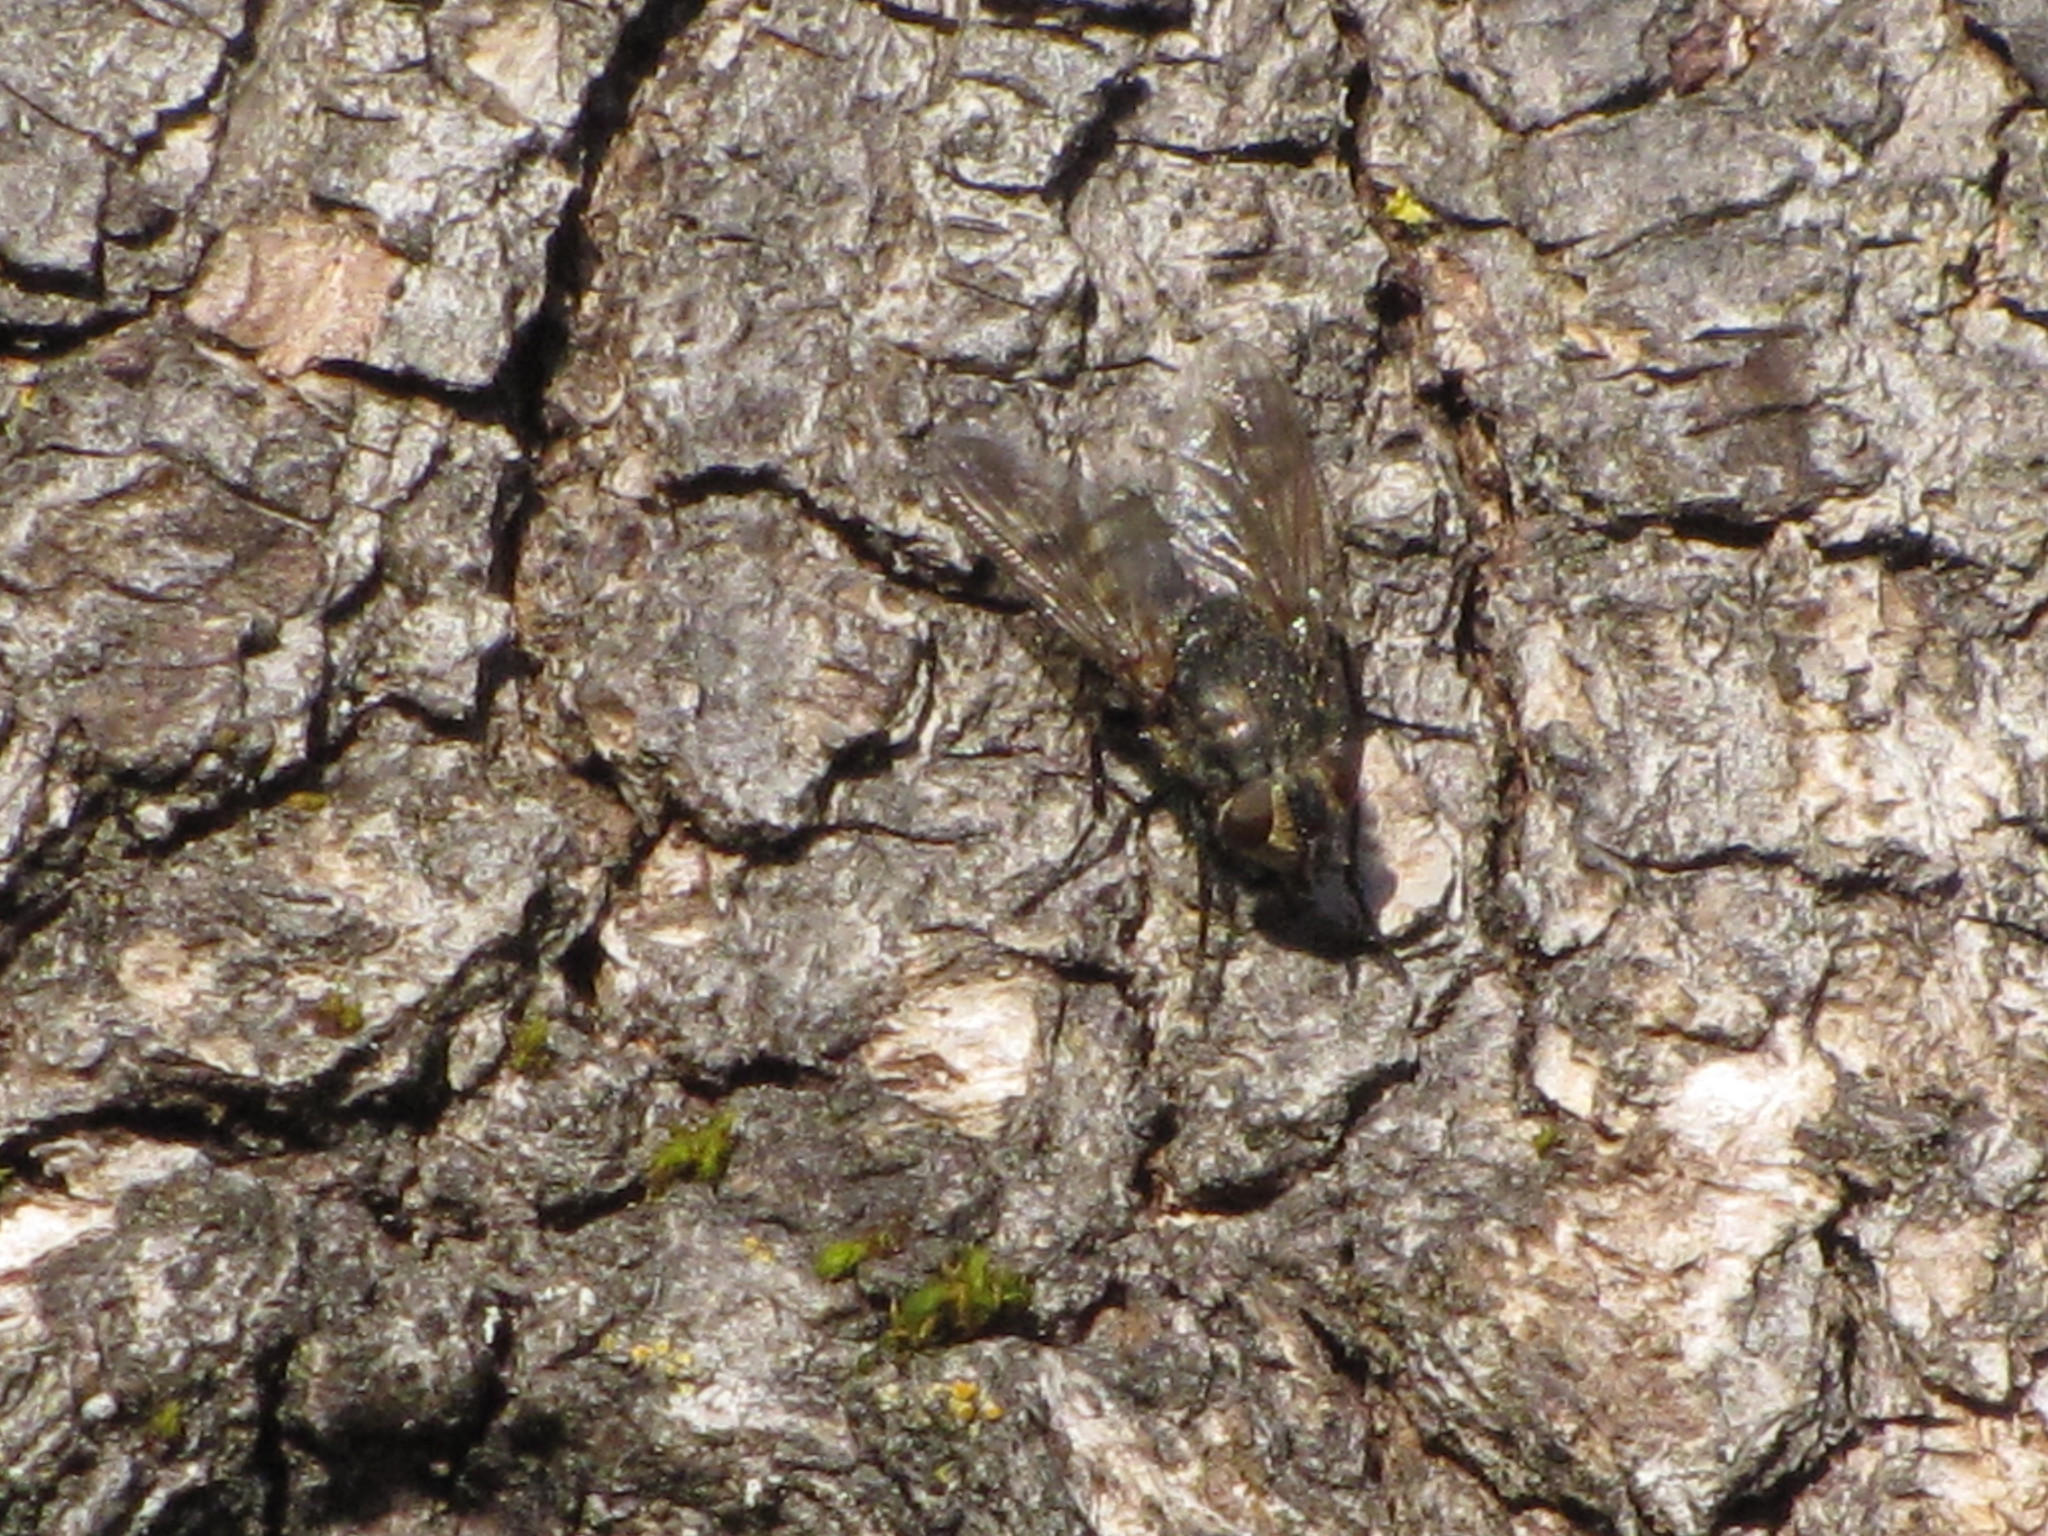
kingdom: Animalia
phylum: Arthropoda
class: Insecta
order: Diptera
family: Polleniidae
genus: Pollenia
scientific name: Pollenia
